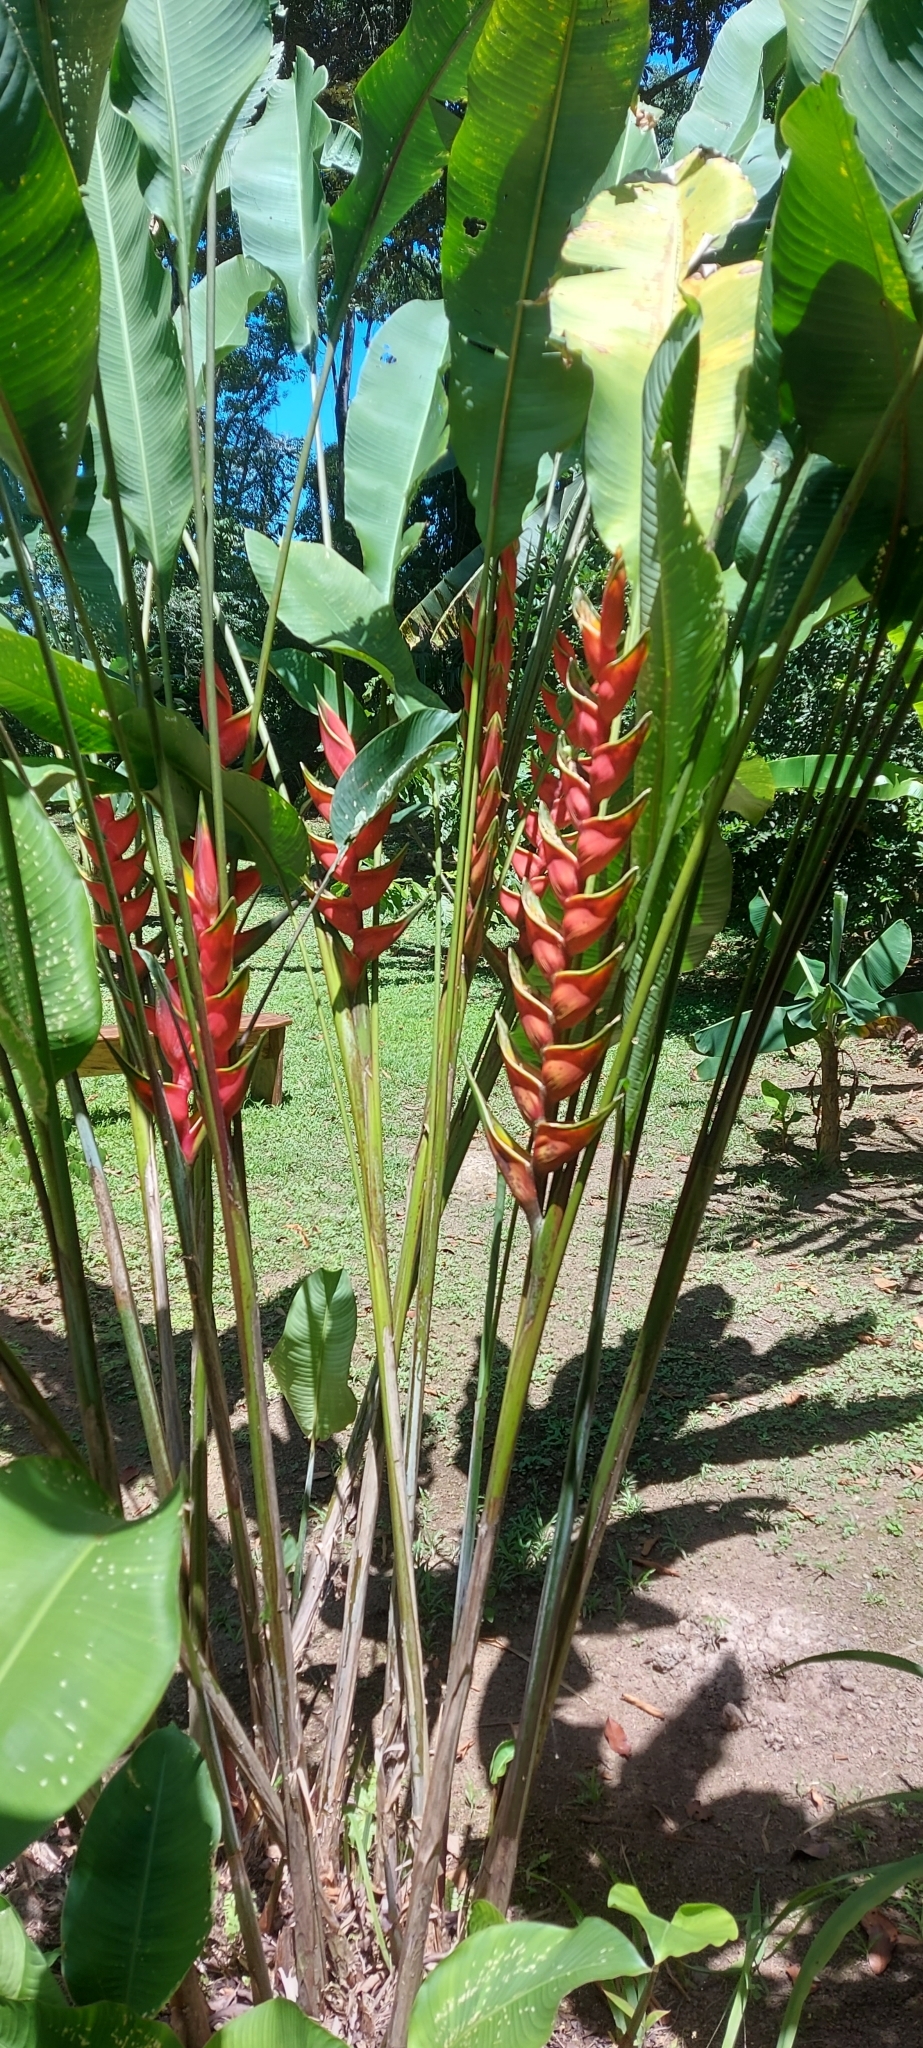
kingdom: Plantae
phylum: Tracheophyta
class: Liliopsida
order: Zingiberales
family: Heliconiaceae
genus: Heliconia
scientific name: Heliconia bihai
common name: Macaw flower
